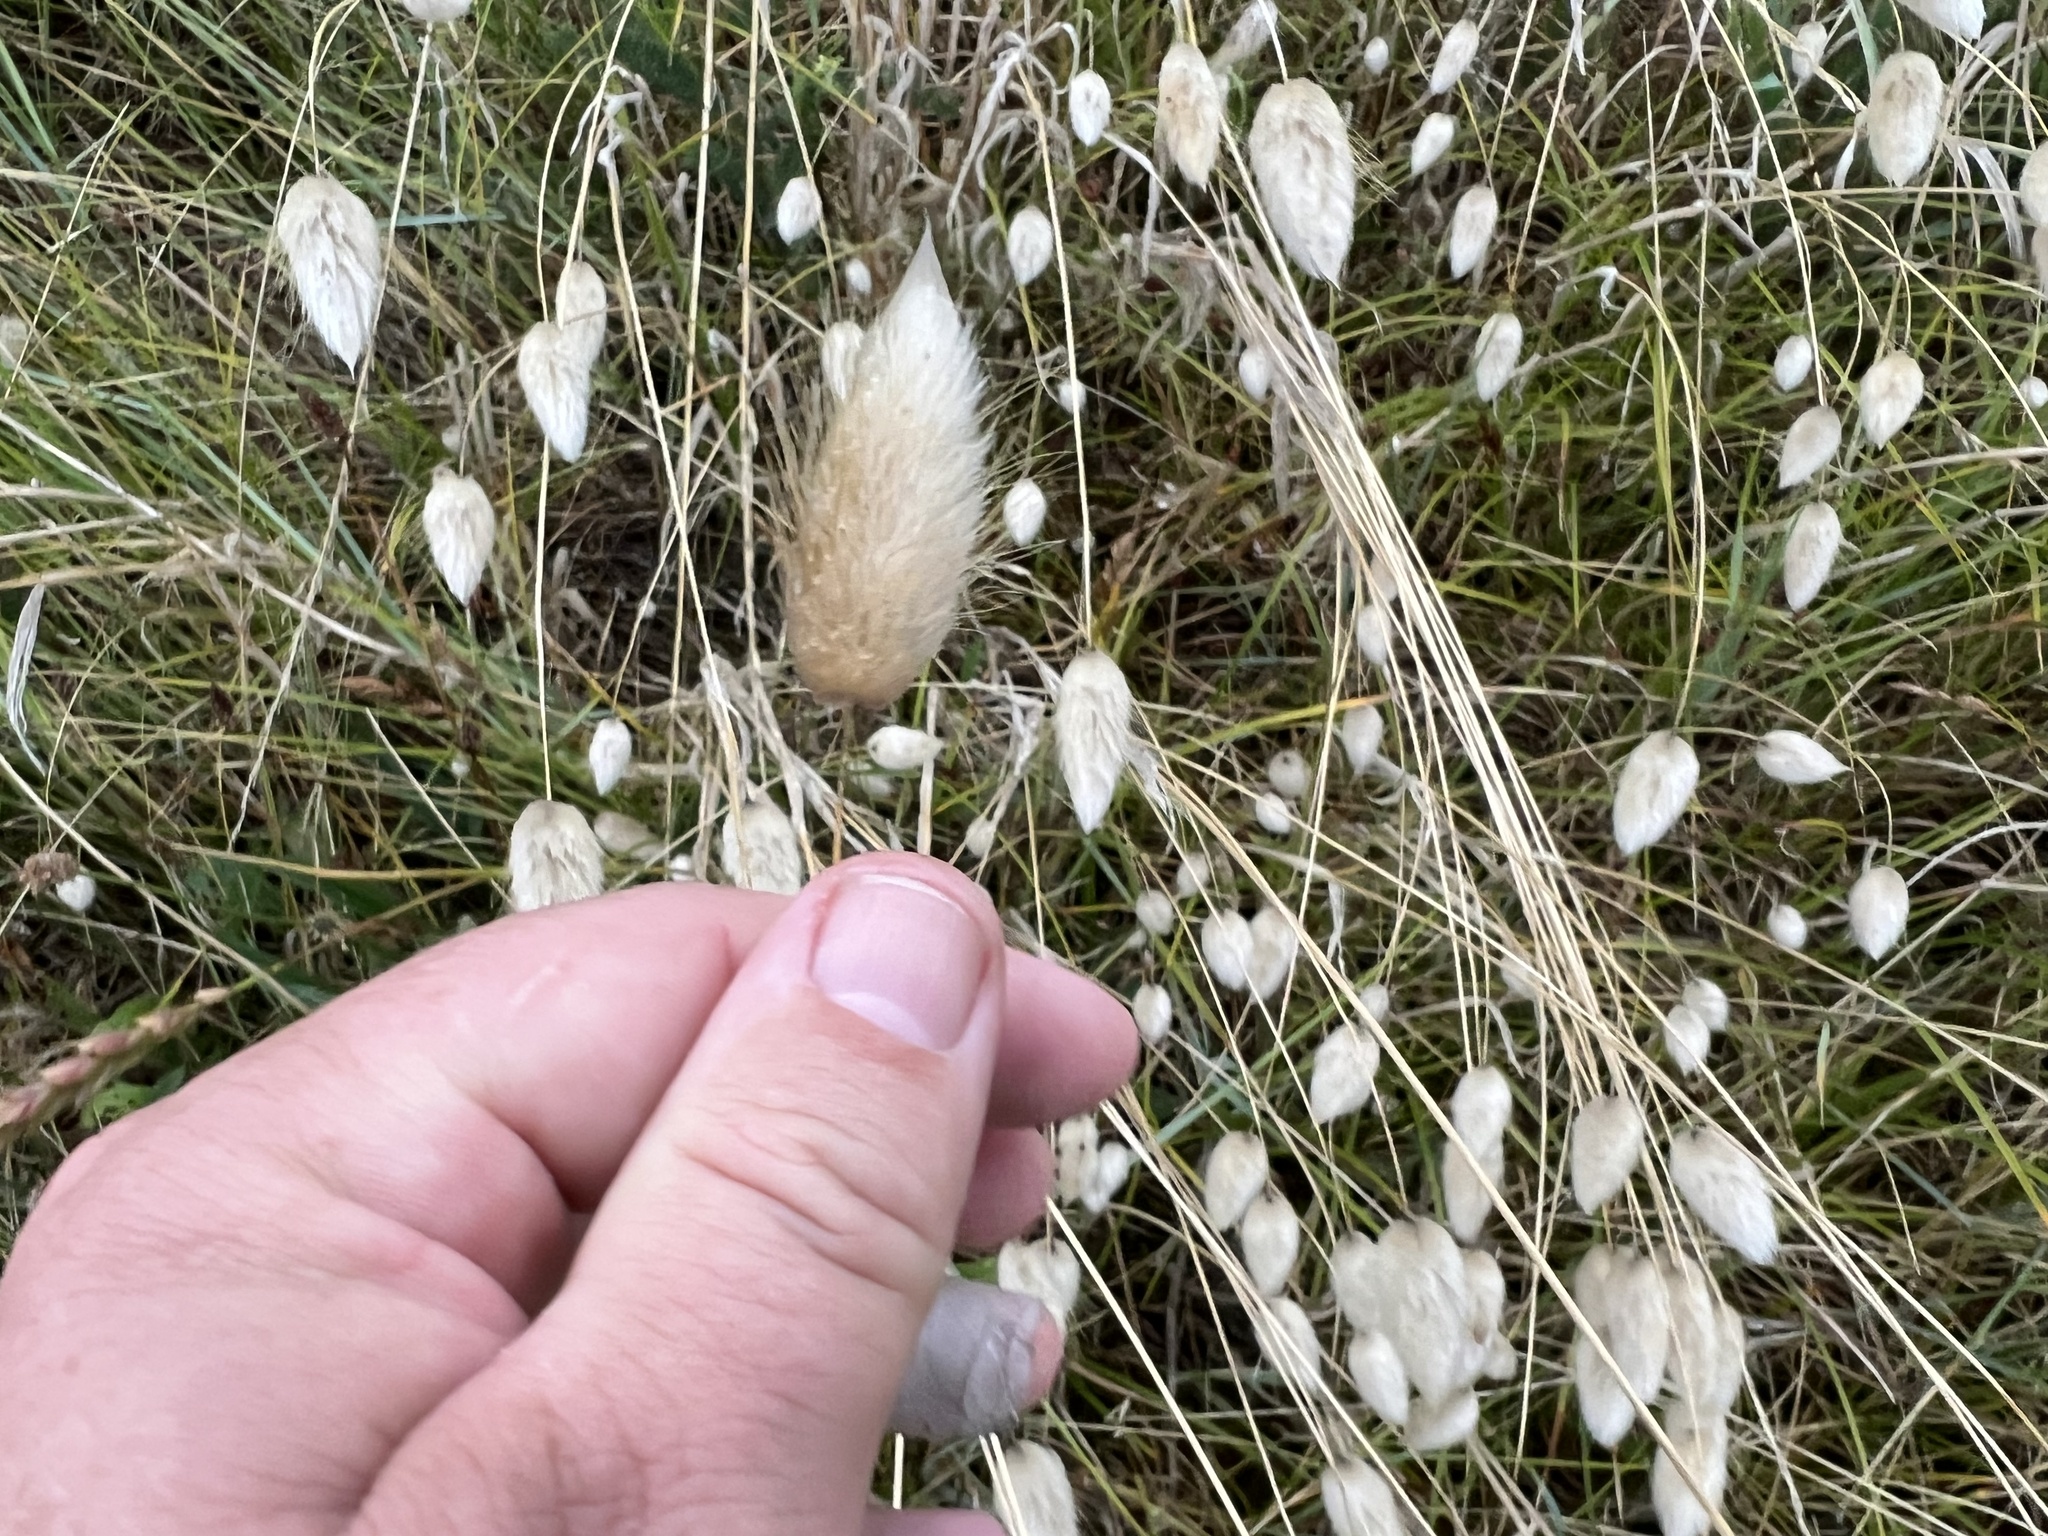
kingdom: Plantae
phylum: Tracheophyta
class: Liliopsida
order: Poales
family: Poaceae
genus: Lagurus
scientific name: Lagurus ovatus
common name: Hare's-tail
